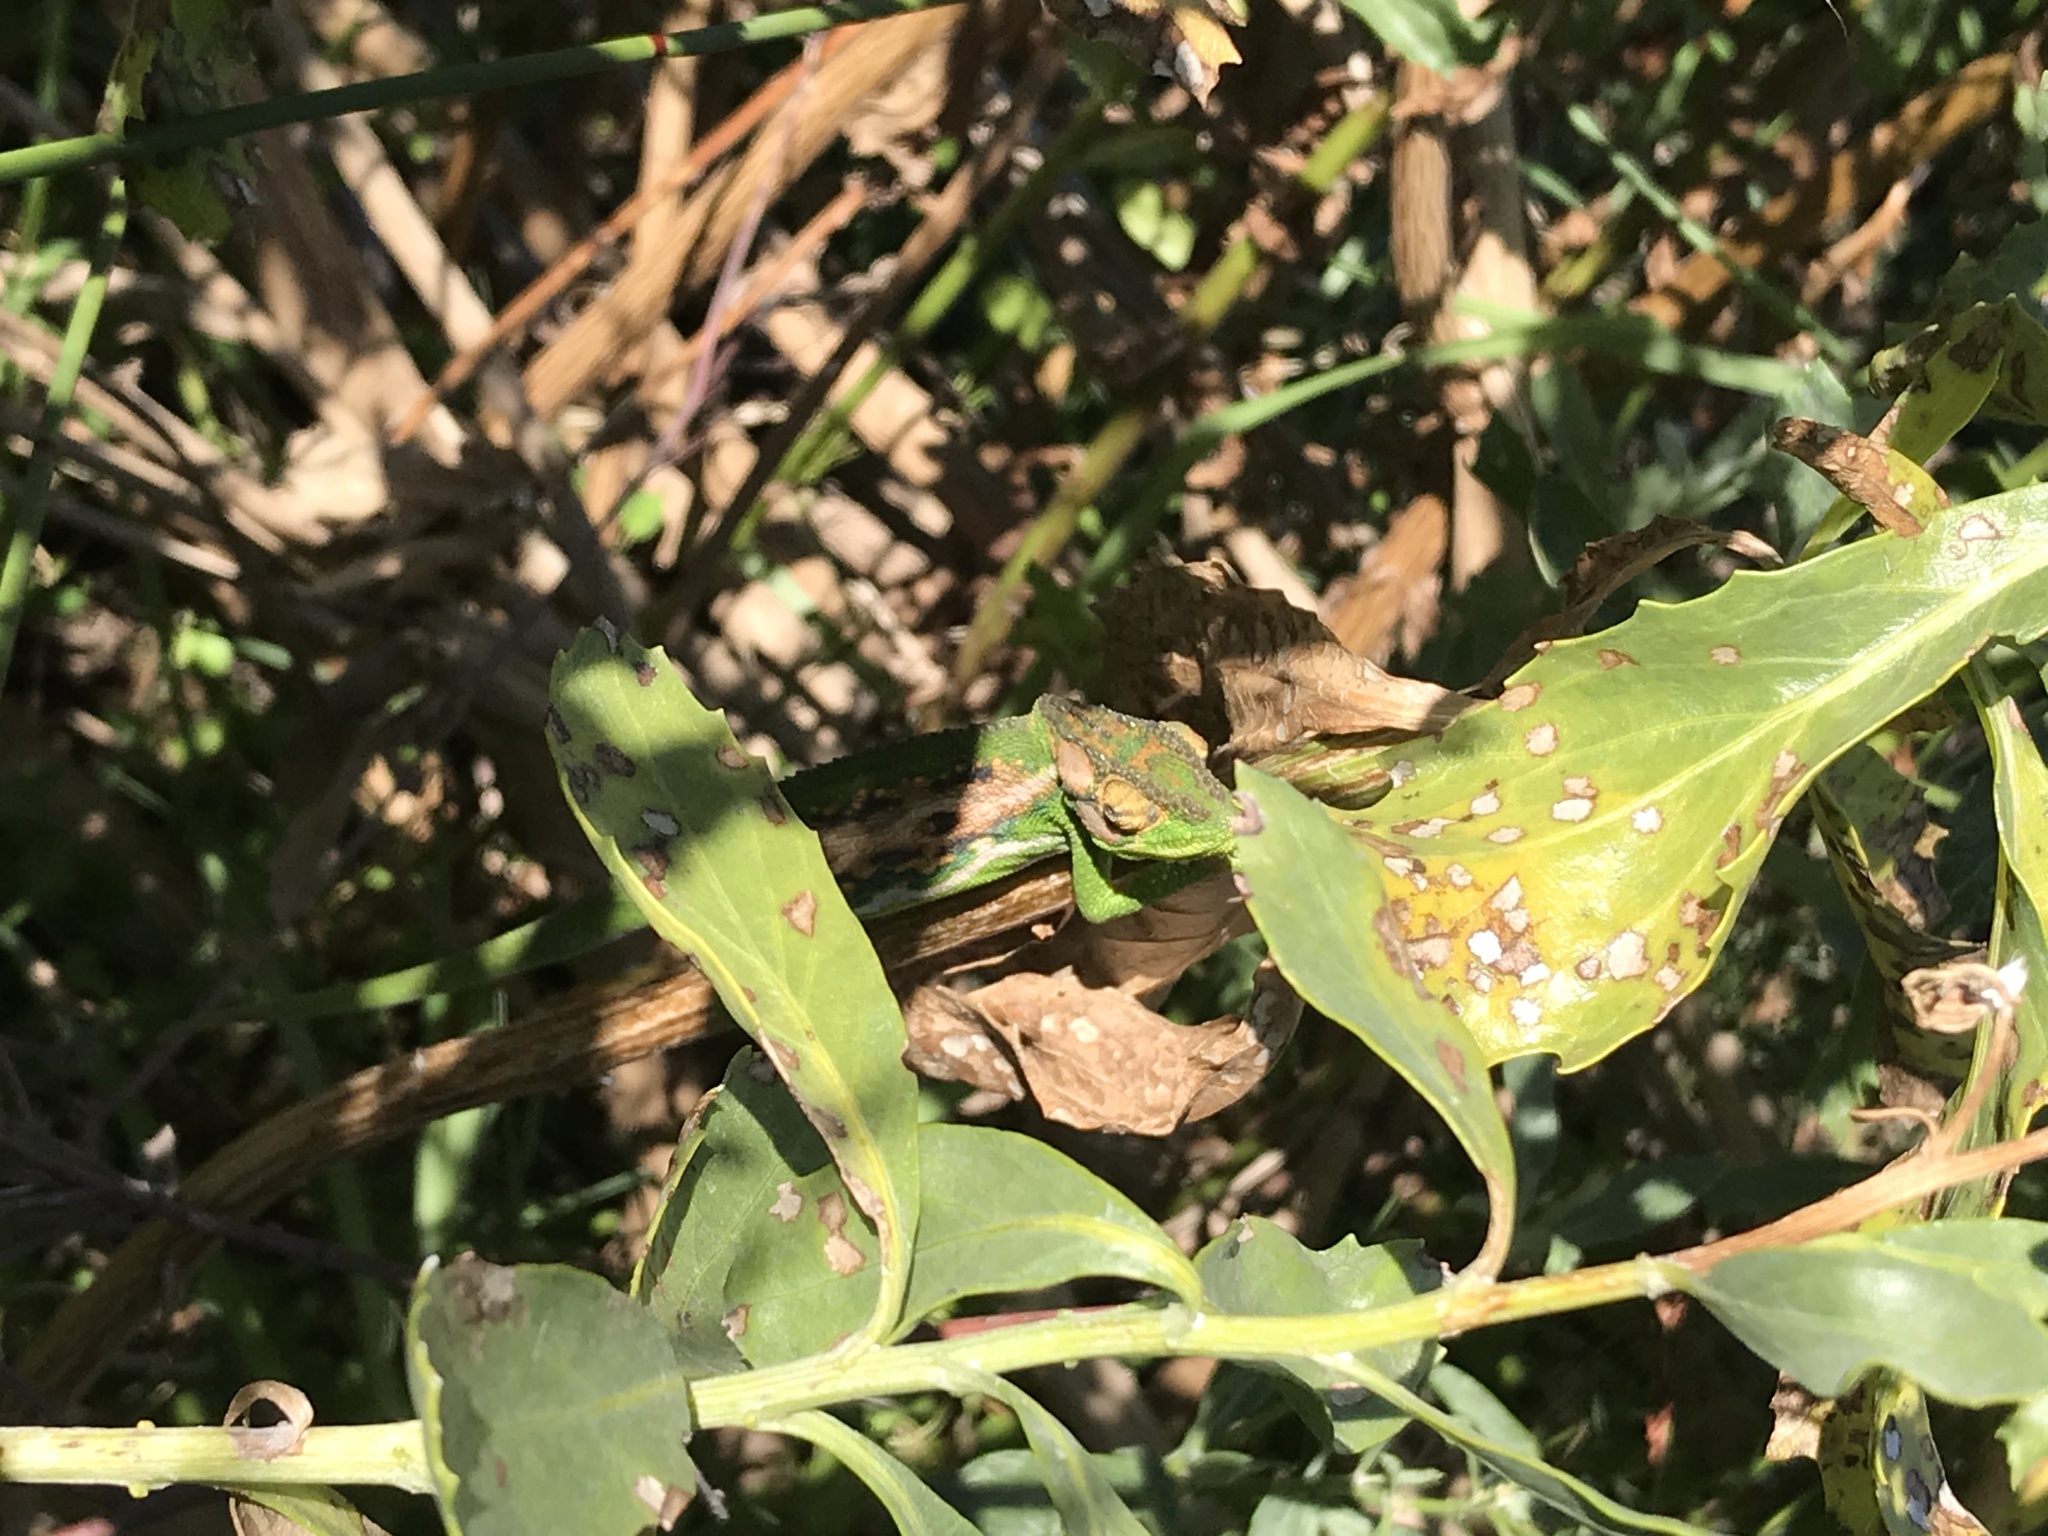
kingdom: Animalia
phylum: Chordata
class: Squamata
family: Chamaeleonidae
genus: Bradypodion
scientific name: Bradypodion pumilum
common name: Cape dwarf chameleon
